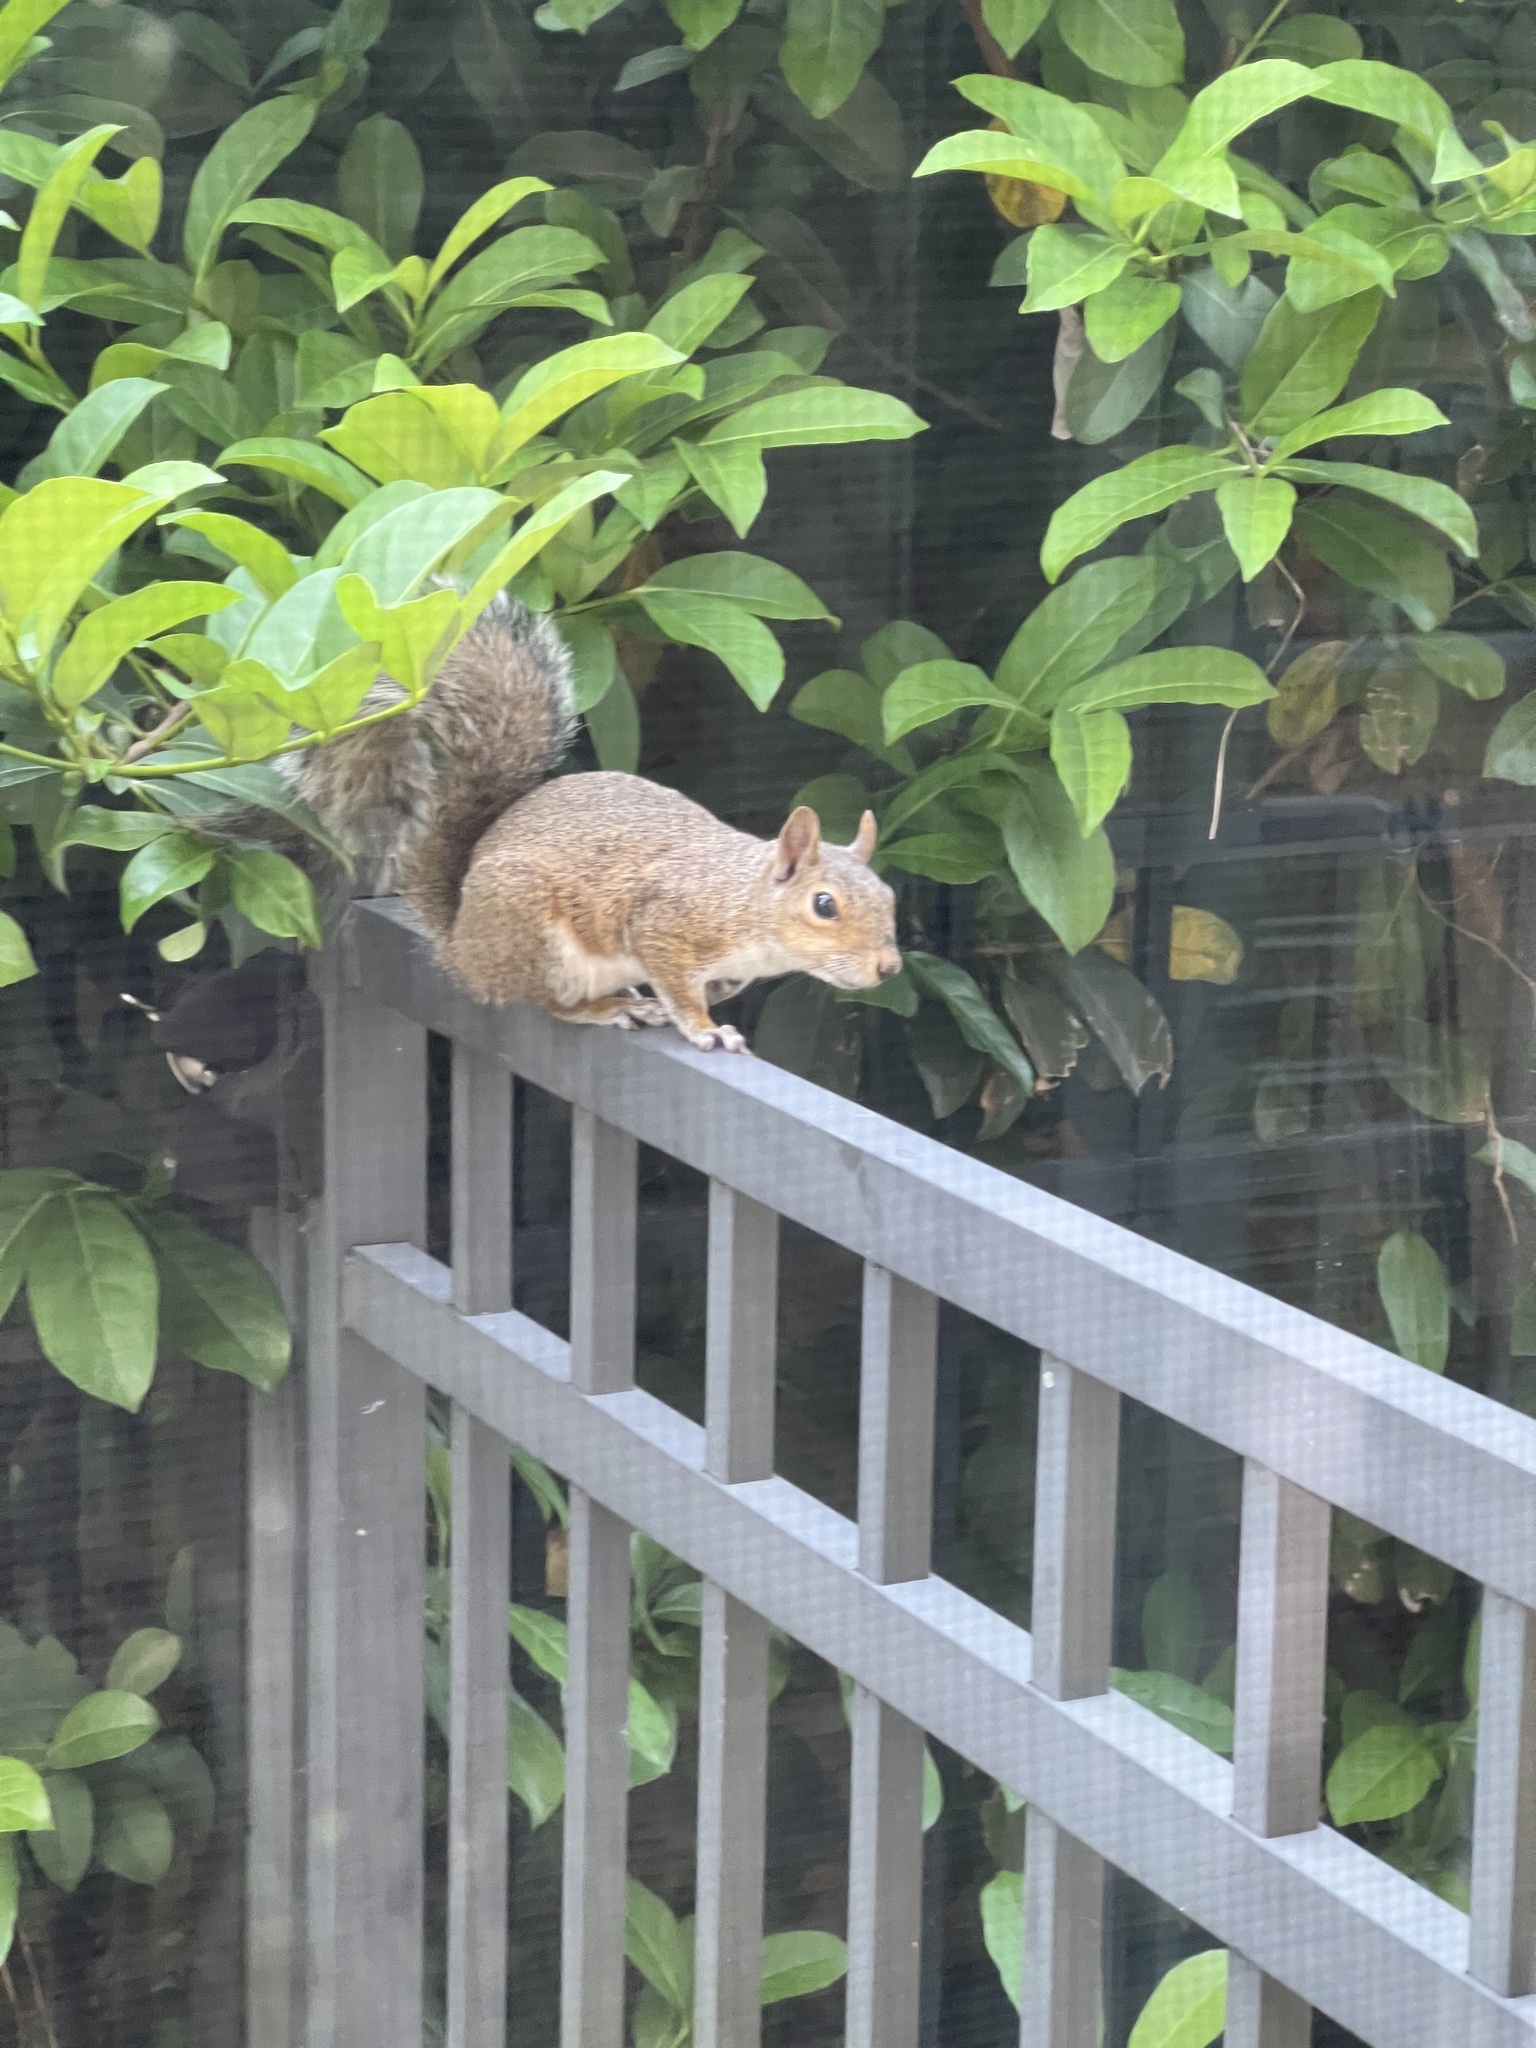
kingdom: Animalia
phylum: Chordata
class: Mammalia
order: Rodentia
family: Sciuridae
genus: Sciurus
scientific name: Sciurus carolinensis
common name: Eastern gray squirrel
